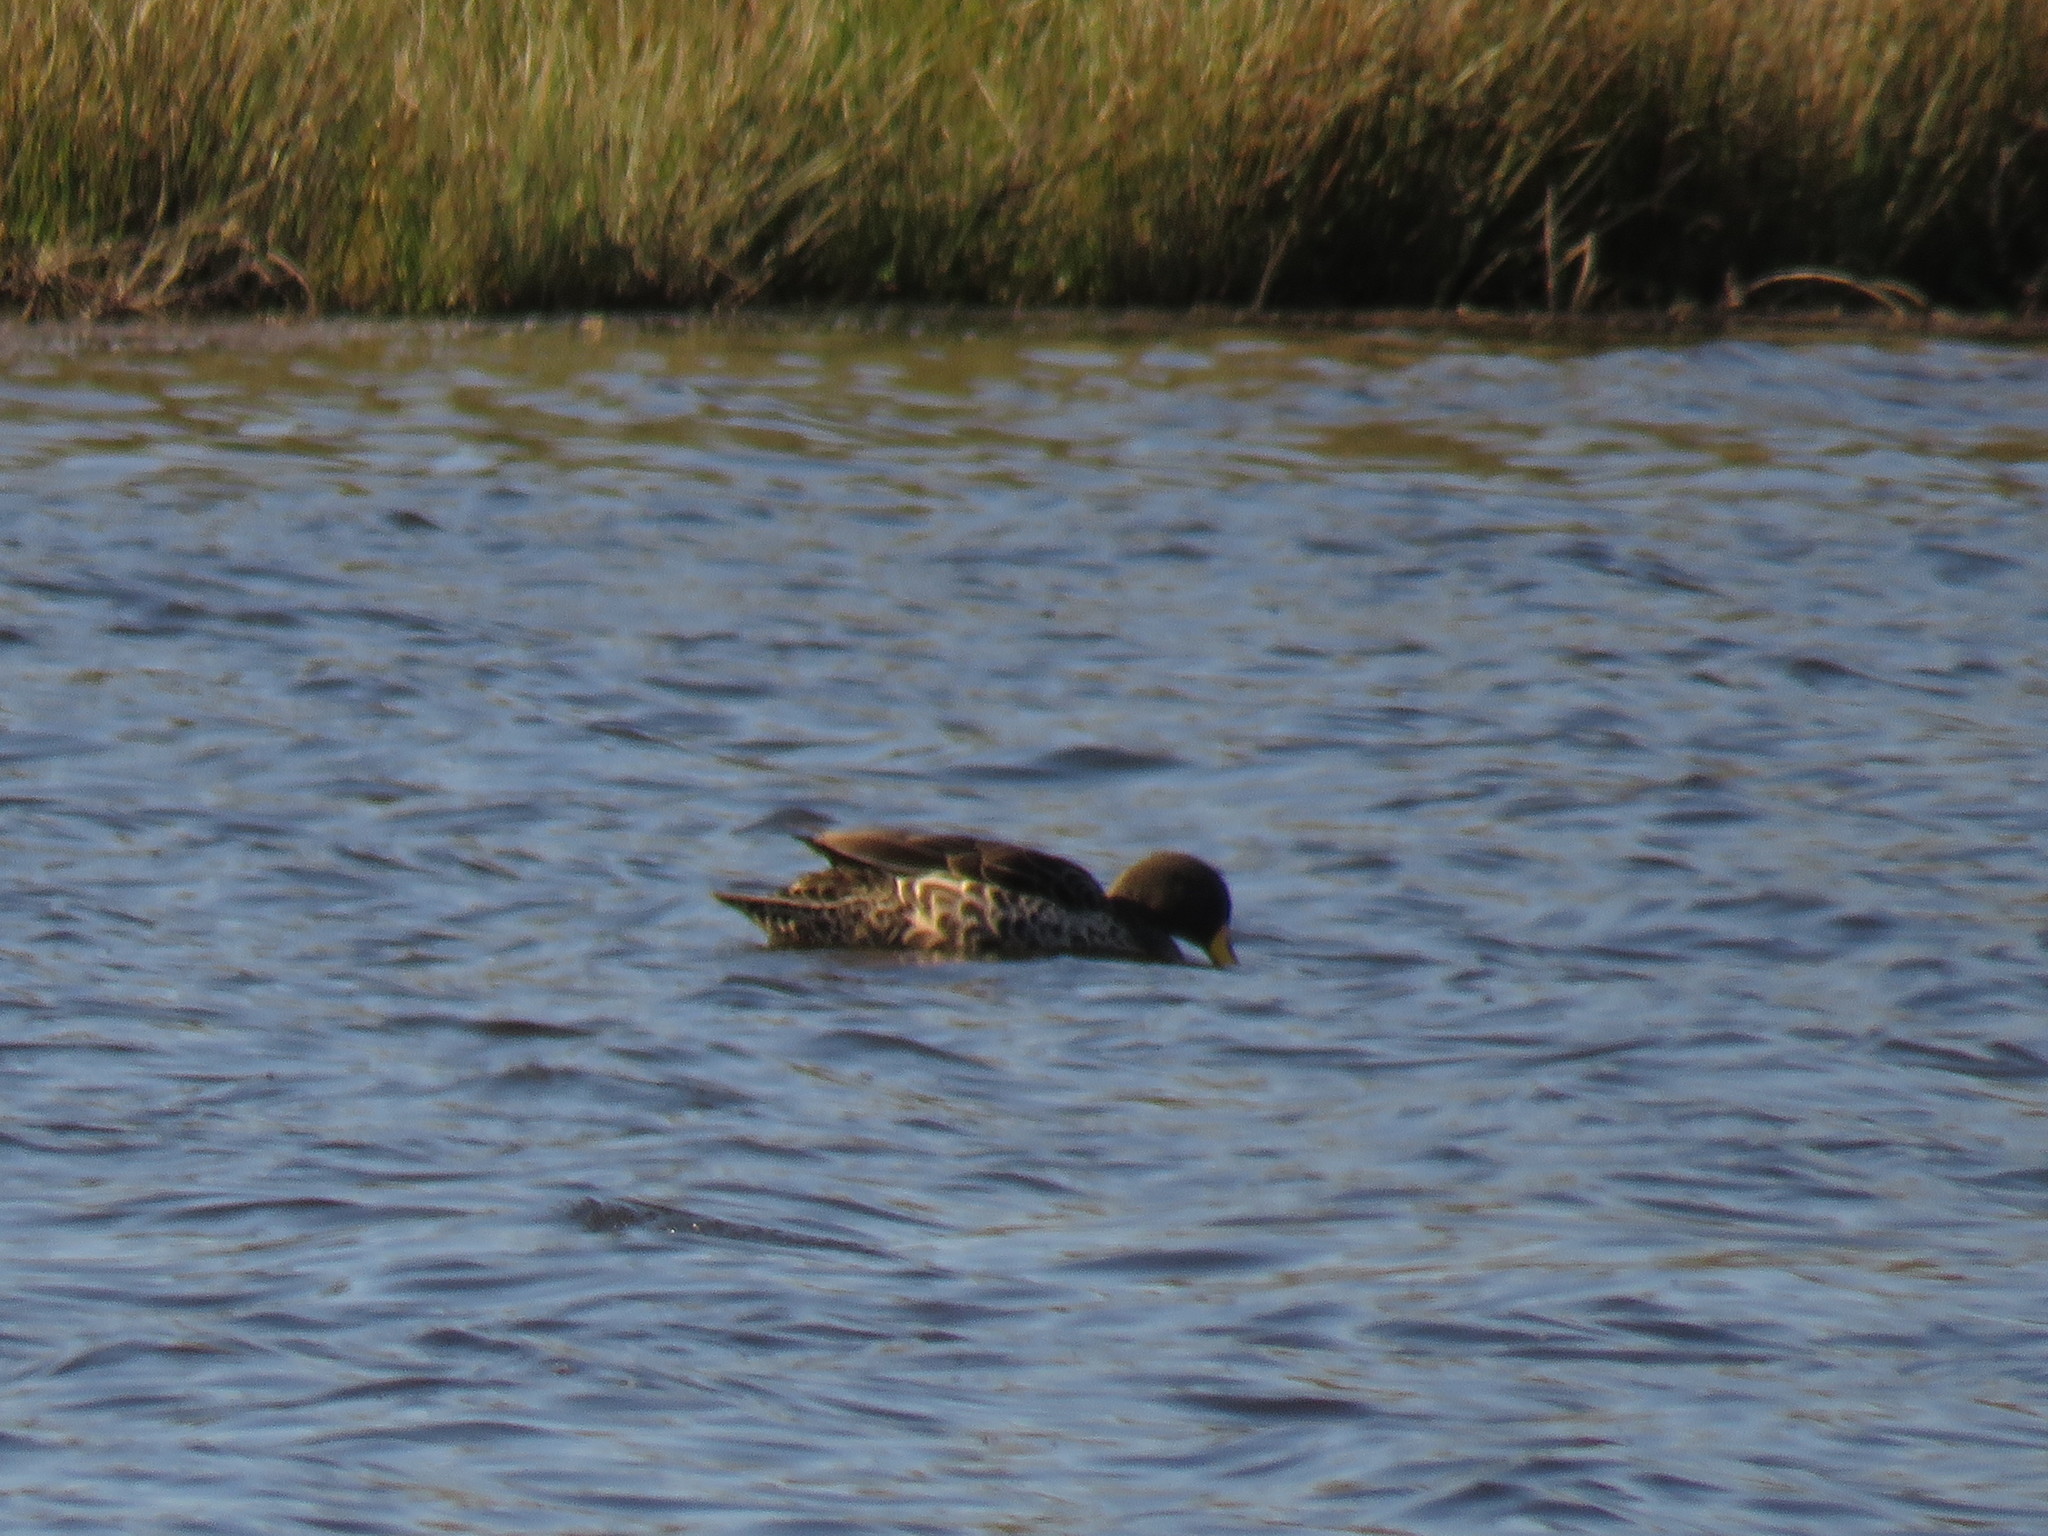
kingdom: Animalia
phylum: Chordata
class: Aves
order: Anseriformes
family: Anatidae
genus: Anas
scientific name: Anas undulata
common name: Yellow-billed duck
